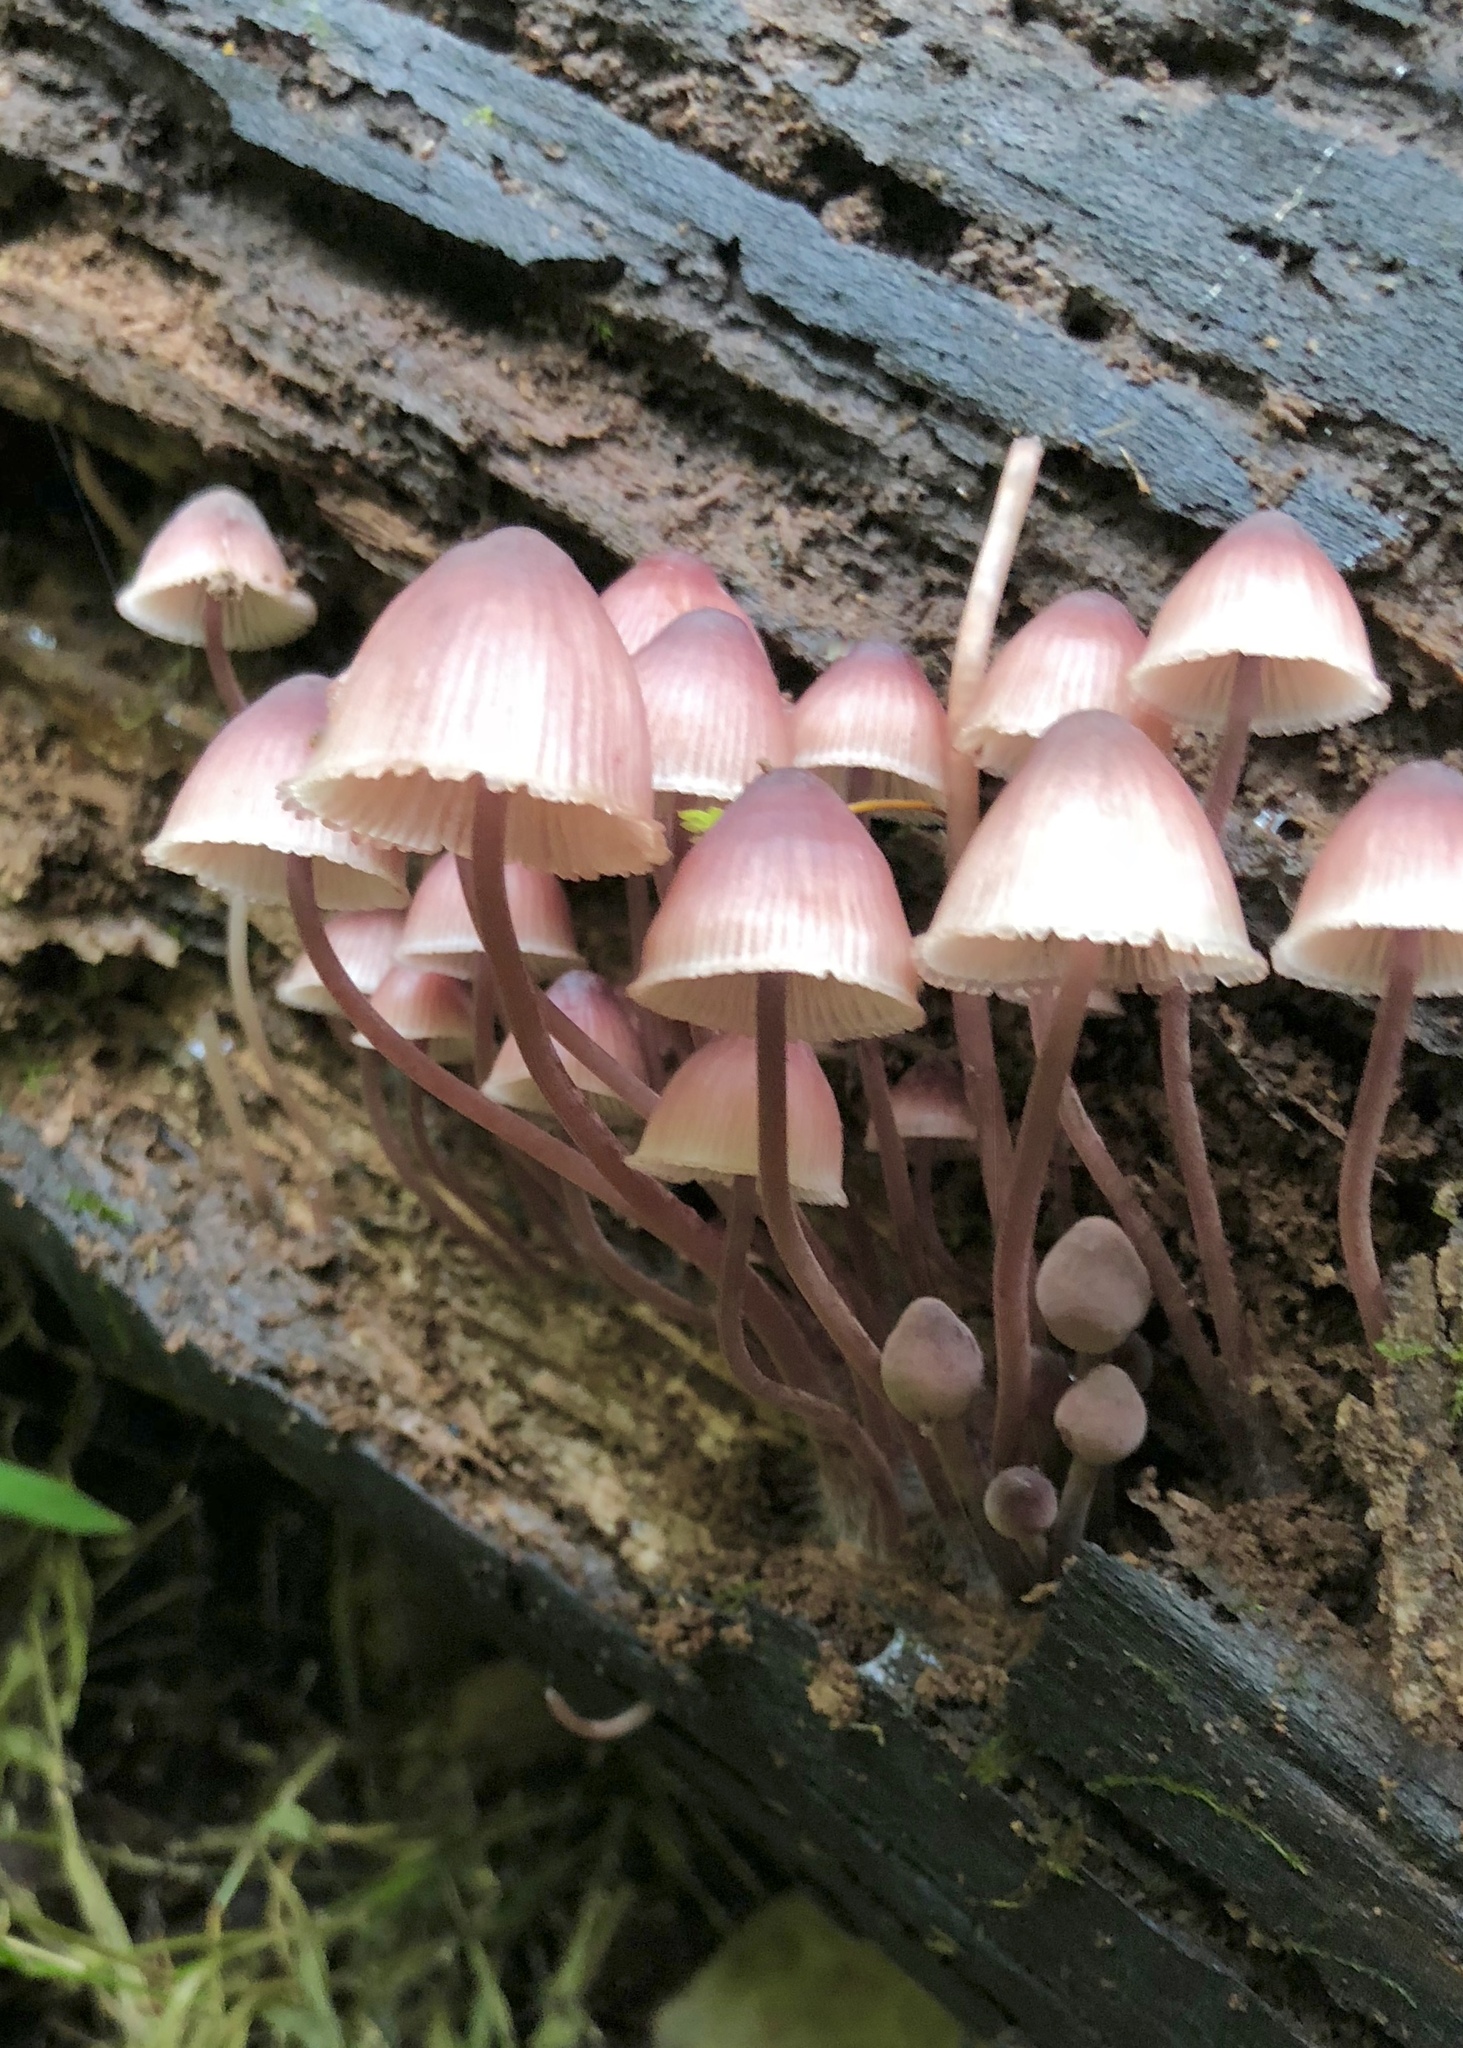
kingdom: Fungi
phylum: Basidiomycota
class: Agaricomycetes
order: Agaricales
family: Mycenaceae
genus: Mycena
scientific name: Mycena haematopus
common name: Burgundydrop bonnet
